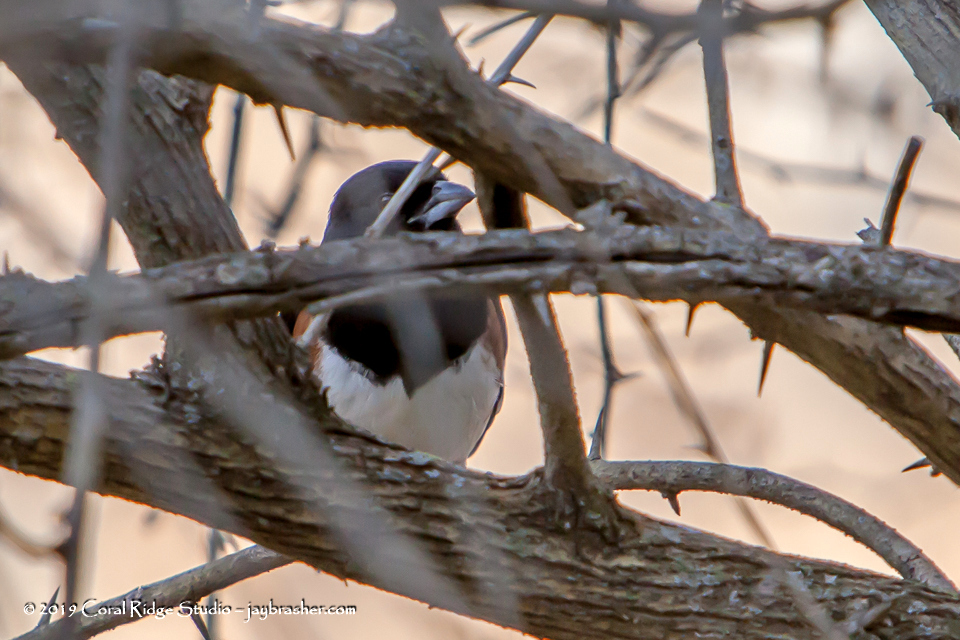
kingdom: Animalia
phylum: Chordata
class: Aves
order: Passeriformes
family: Passerellidae
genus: Pipilo
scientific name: Pipilo erythrophthalmus
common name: Eastern towhee
